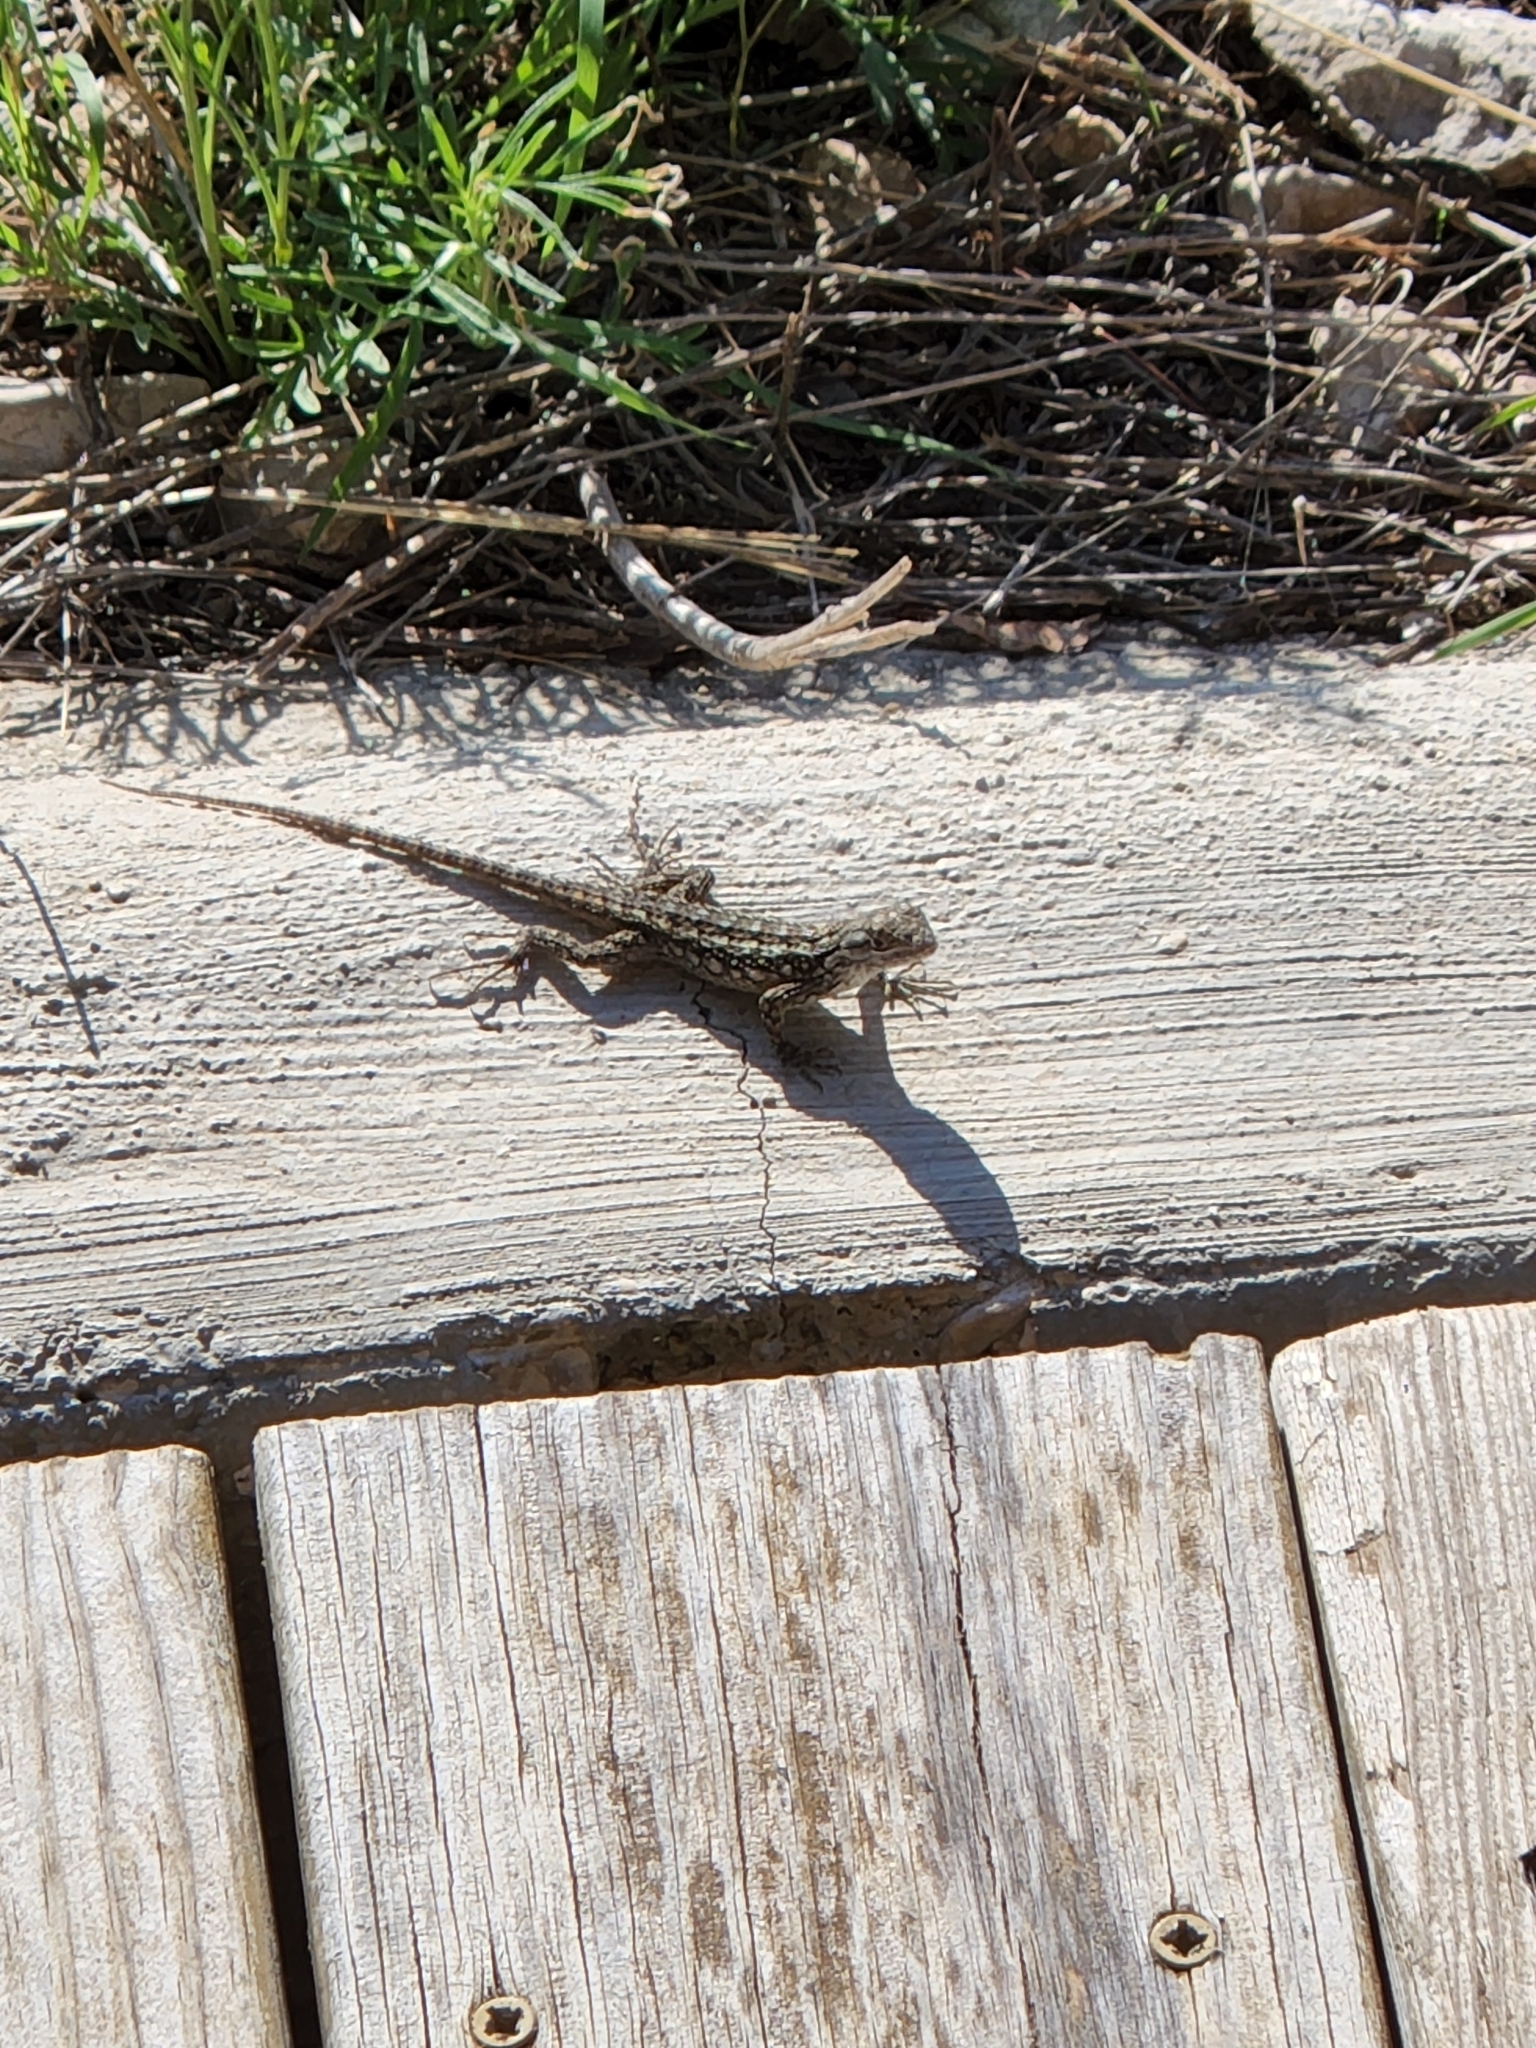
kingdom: Animalia
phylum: Chordata
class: Squamata
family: Phrynosomatidae
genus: Sceloporus
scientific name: Sceloporus olivaceus
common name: Texas spiny lizard
